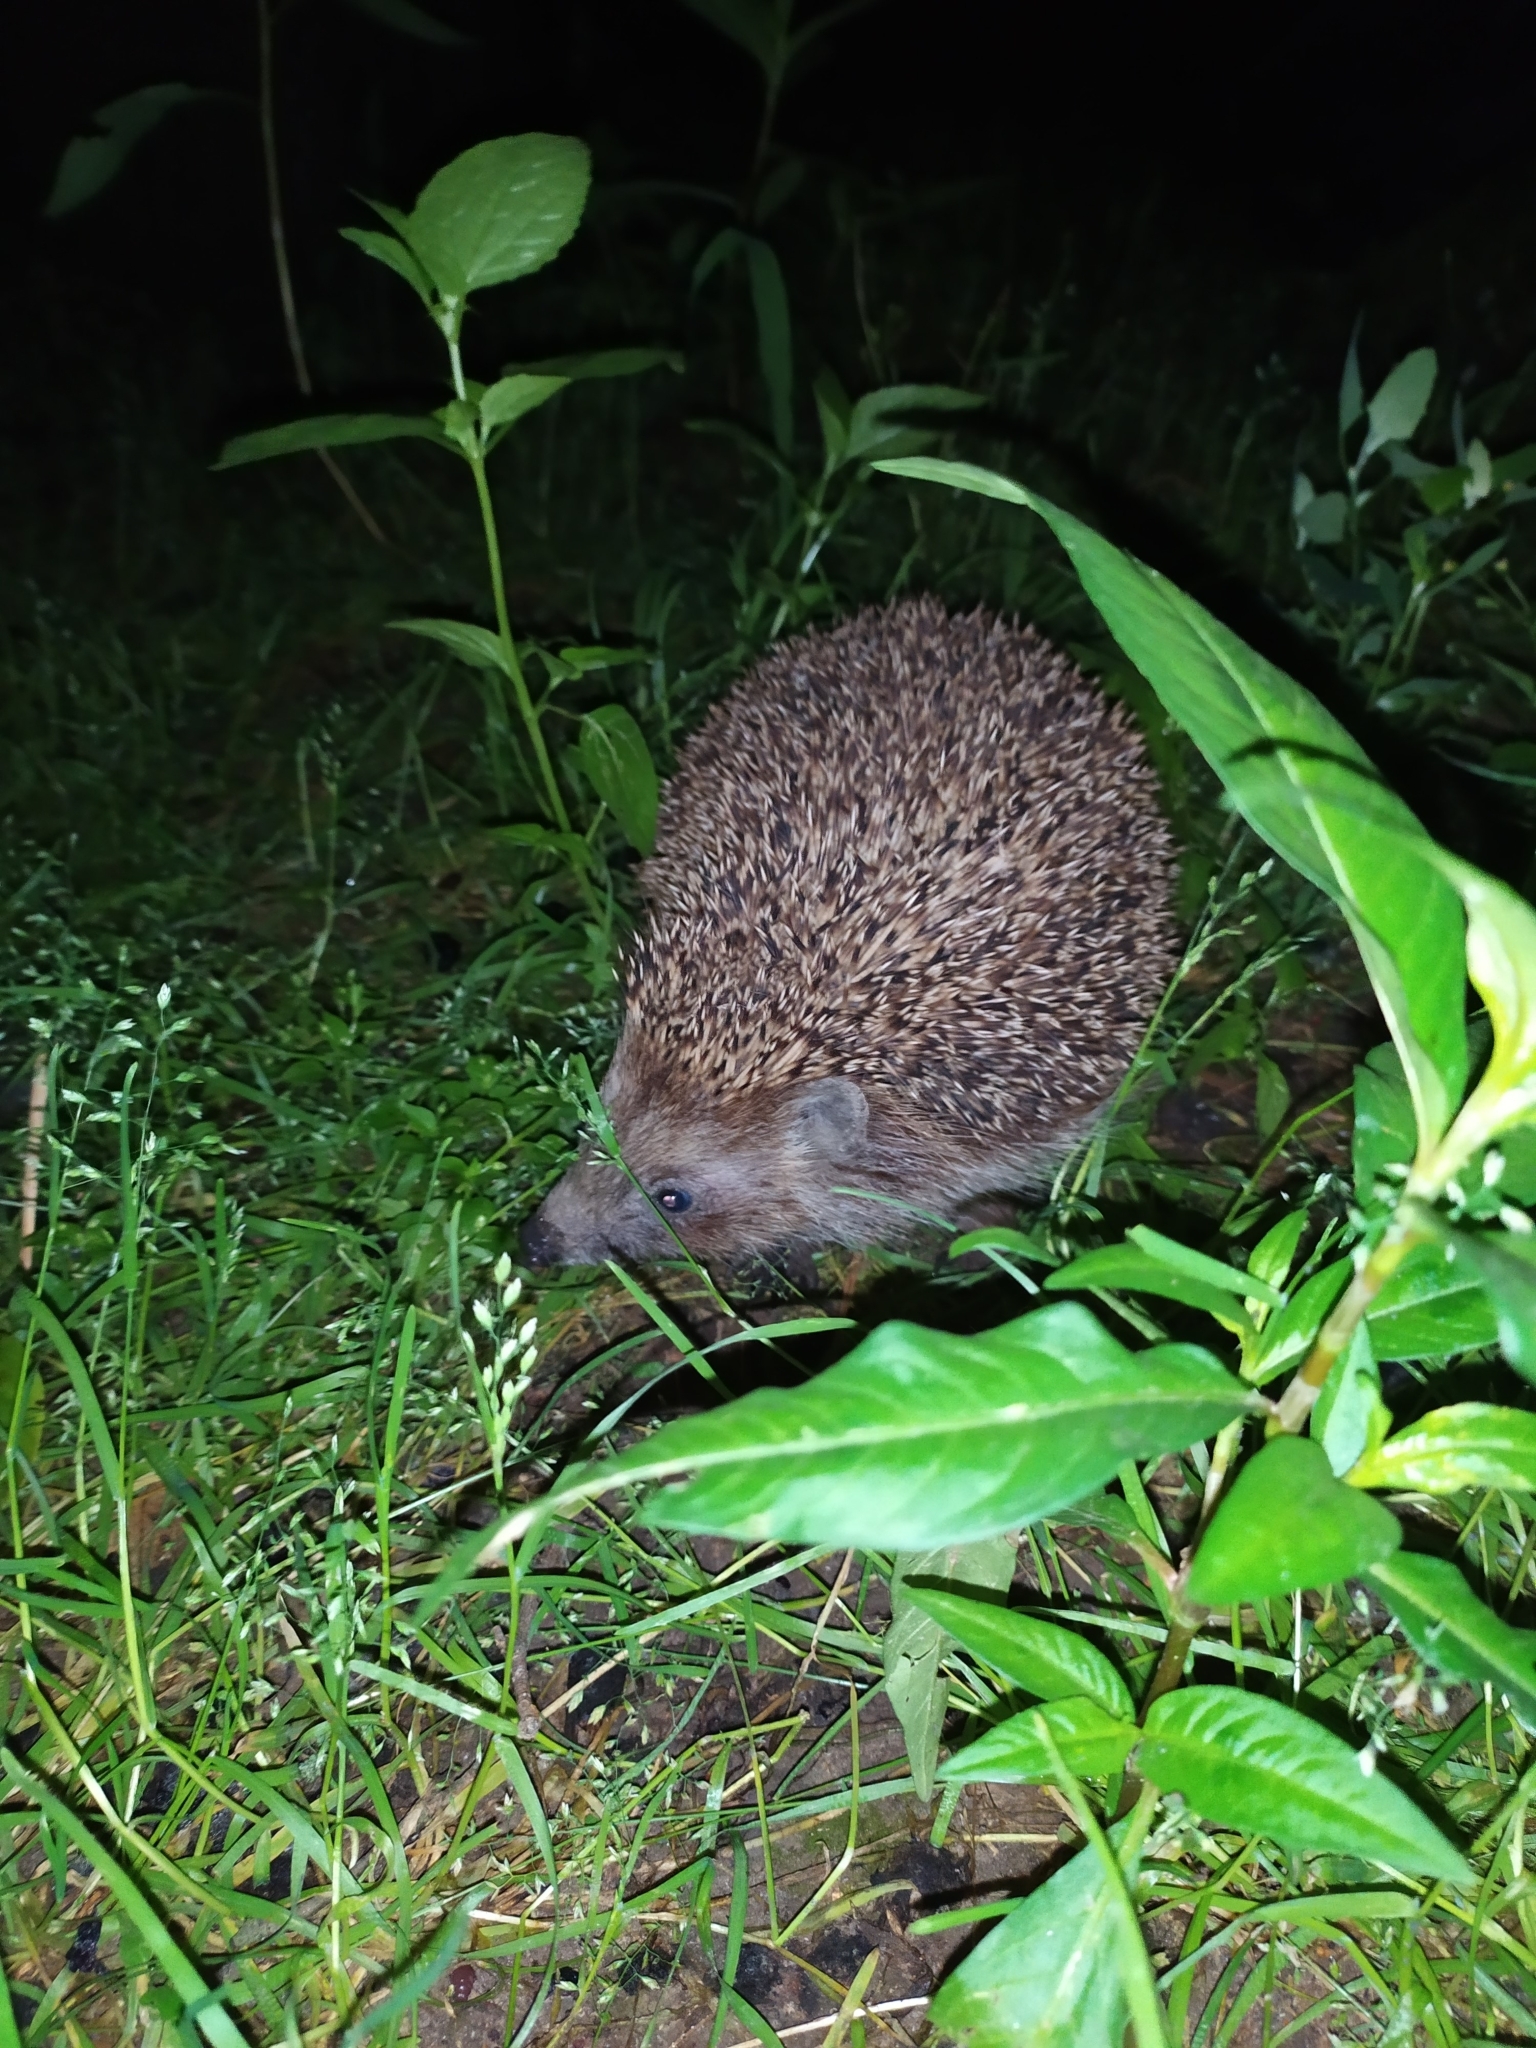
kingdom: Animalia
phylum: Chordata
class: Mammalia
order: Erinaceomorpha
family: Erinaceidae
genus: Erinaceus
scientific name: Erinaceus roumanicus
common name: Northern white-breasted hedgehog
